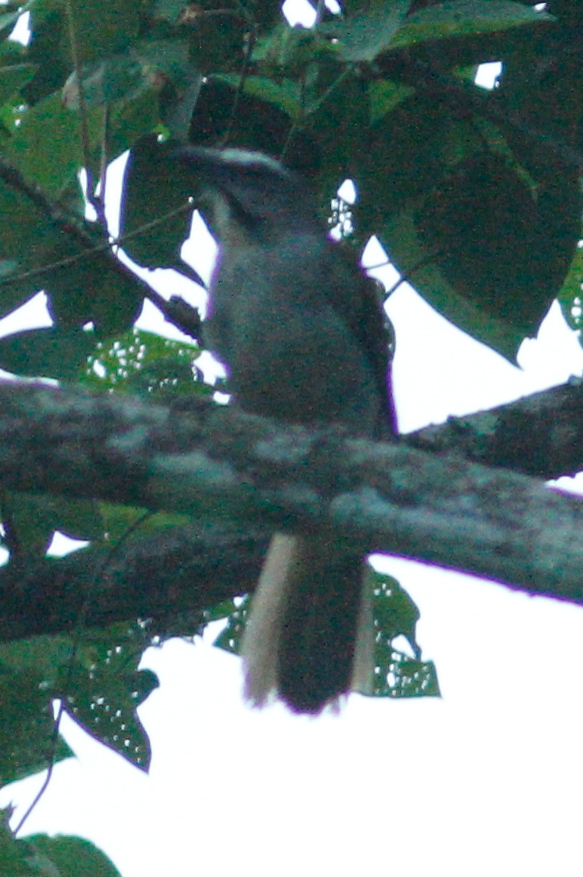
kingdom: Animalia
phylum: Chordata
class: Aves
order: Passeriformes
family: Thraupidae
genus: Saltator
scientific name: Saltator maximus
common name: Buff-throated saltator
